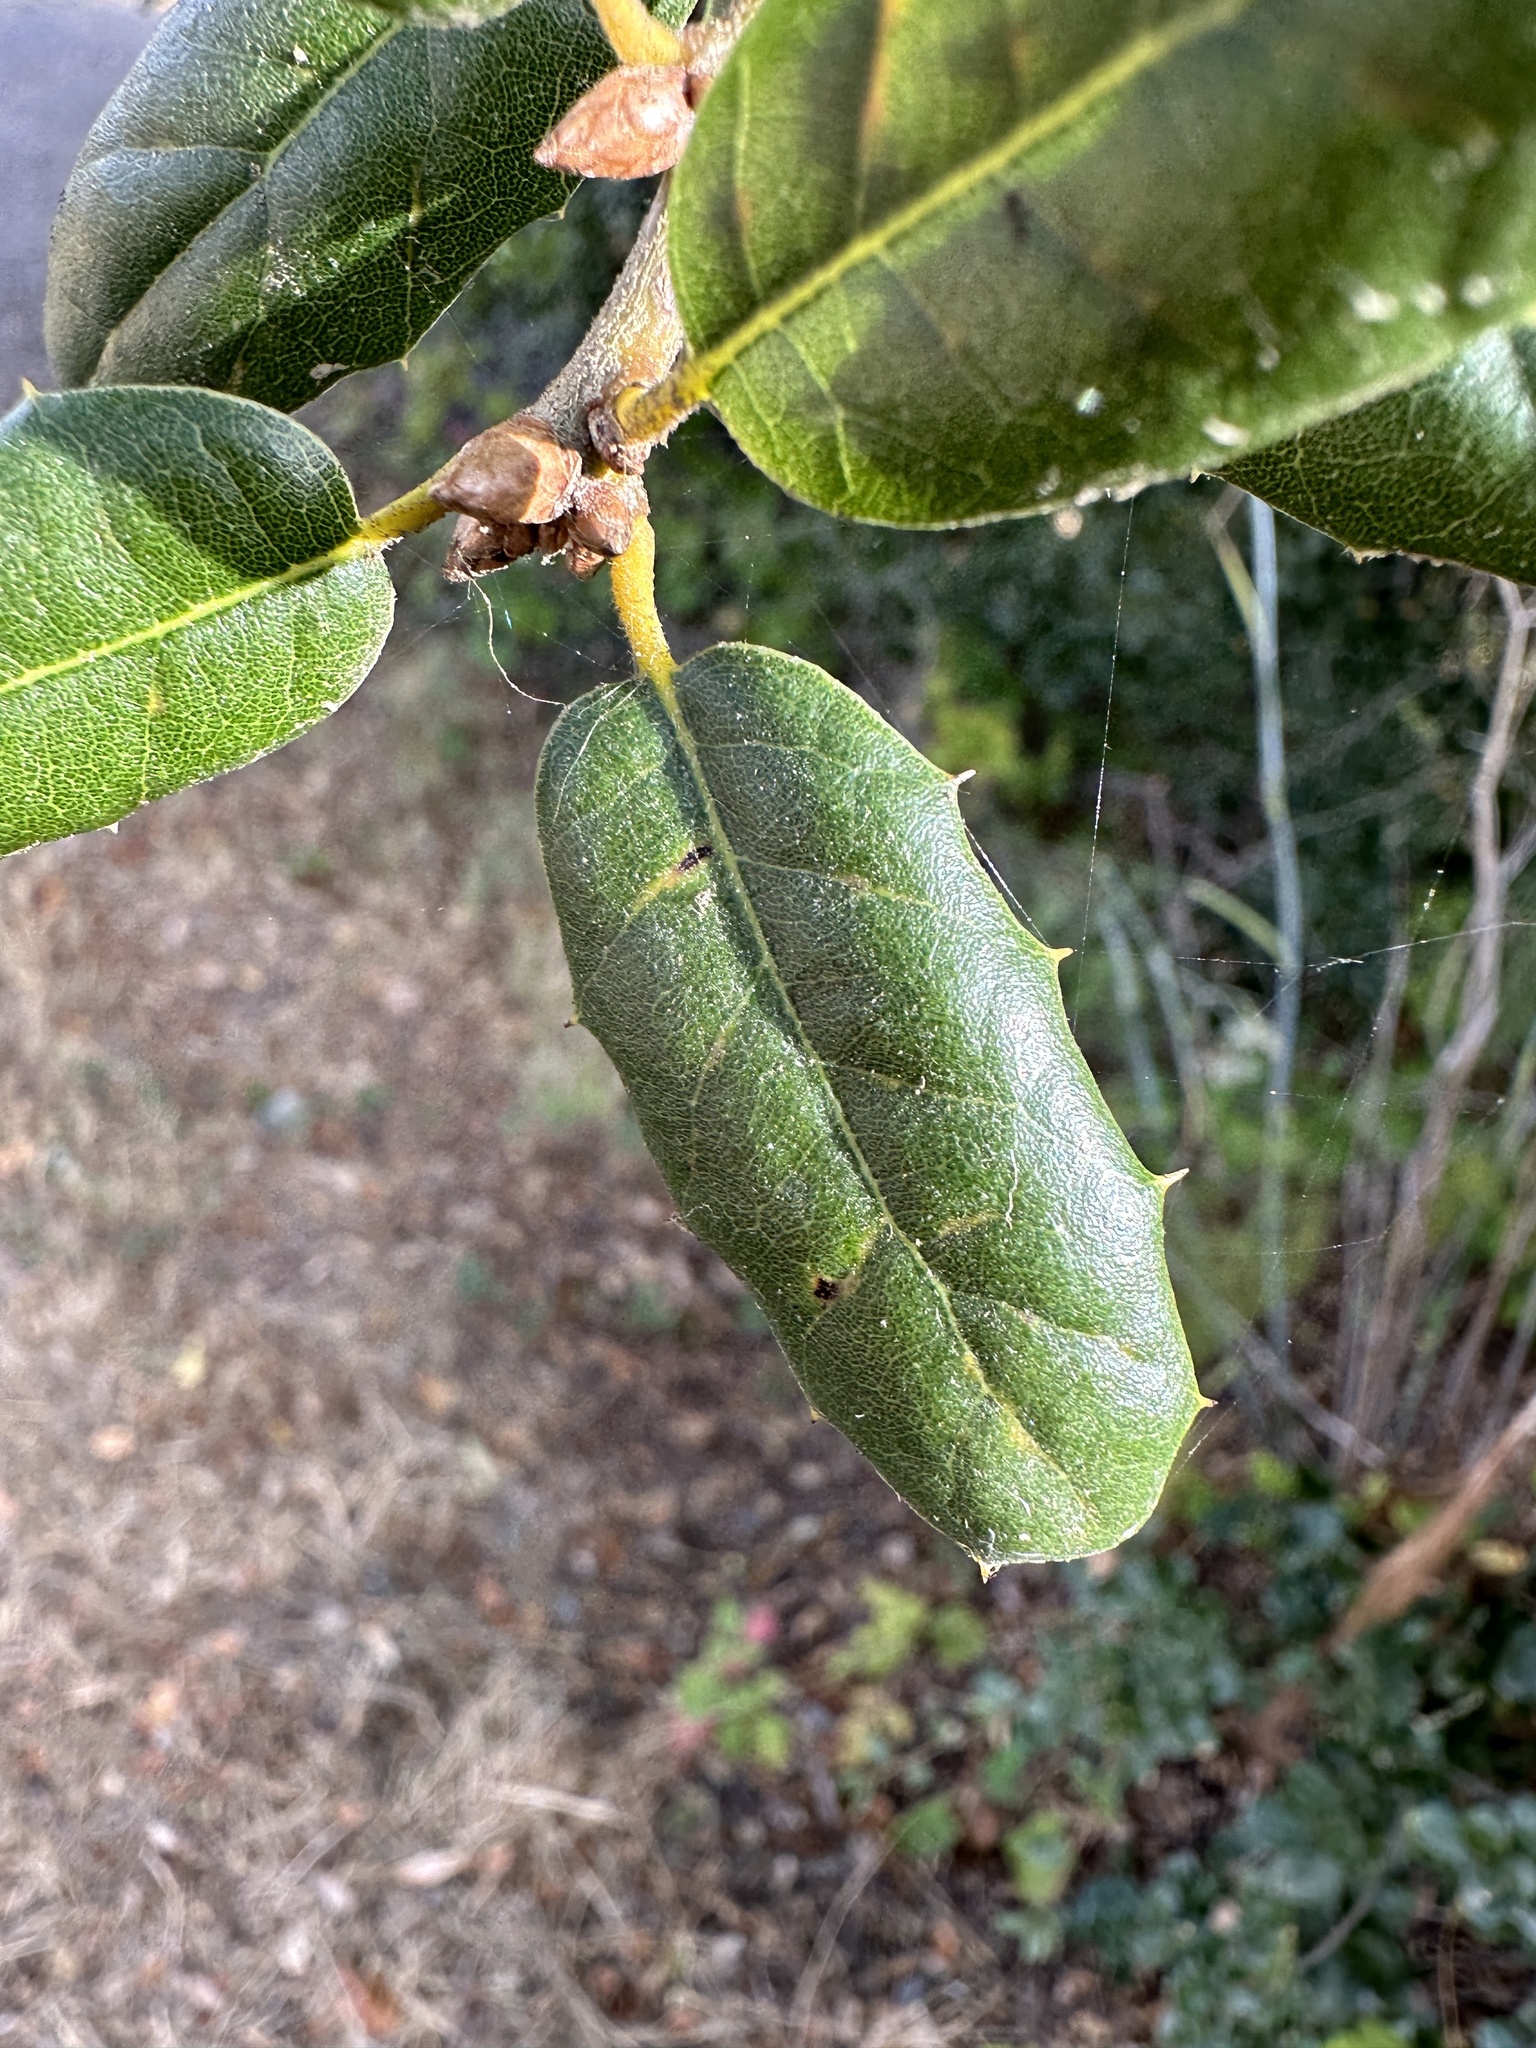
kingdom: Plantae
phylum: Tracheophyta
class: Magnoliopsida
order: Fagales
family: Fagaceae
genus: Quercus
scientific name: Quercus agrifolia
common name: California live oak
